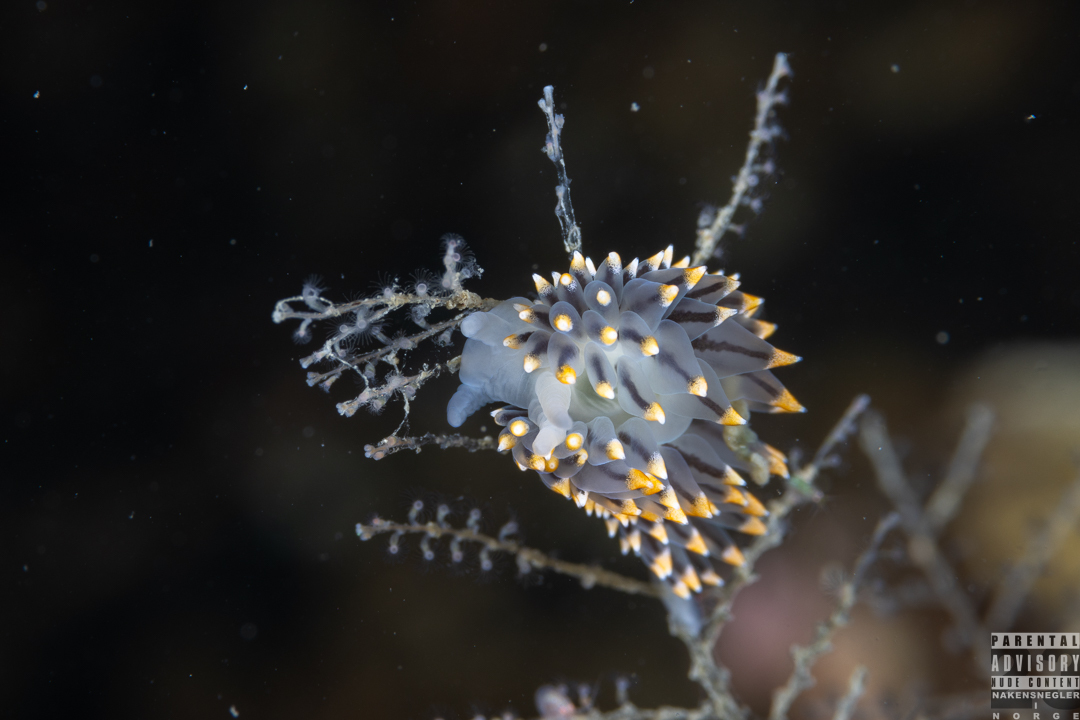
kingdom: Animalia
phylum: Mollusca
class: Gastropoda
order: Nudibranchia
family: Eubranchidae
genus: Eubranchus
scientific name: Eubranchus tricolor
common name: Painted balloon aeolis
